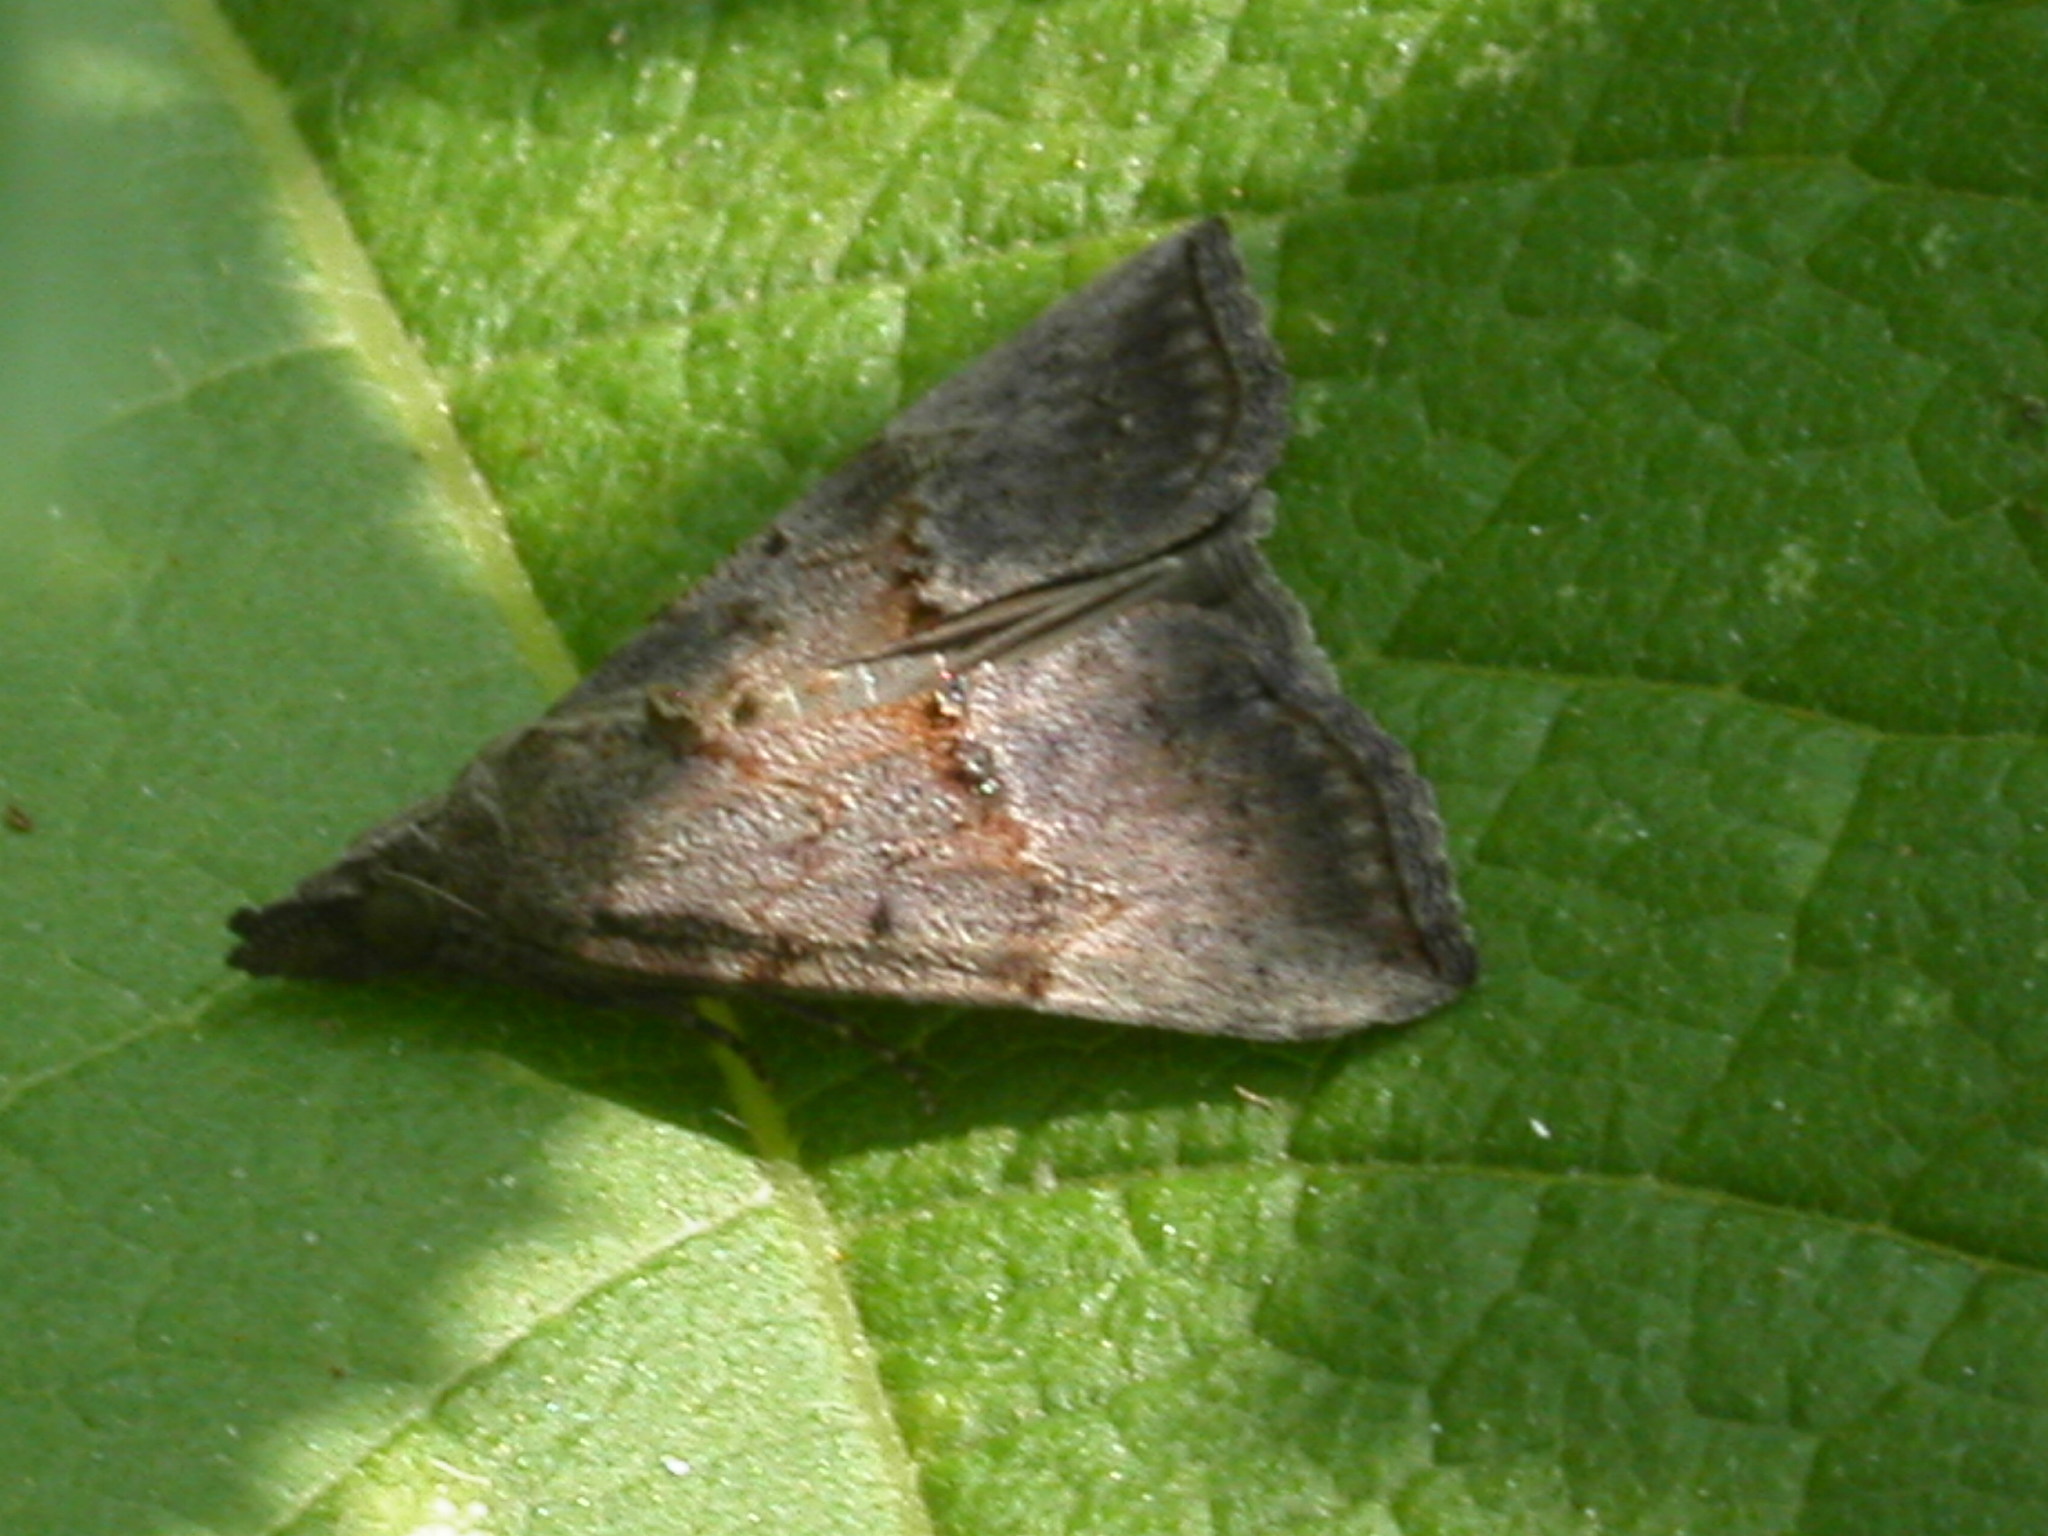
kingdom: Animalia
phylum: Arthropoda
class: Insecta
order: Lepidoptera
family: Erebidae
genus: Hypena
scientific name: Hypena scabra
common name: Green cloverworm
